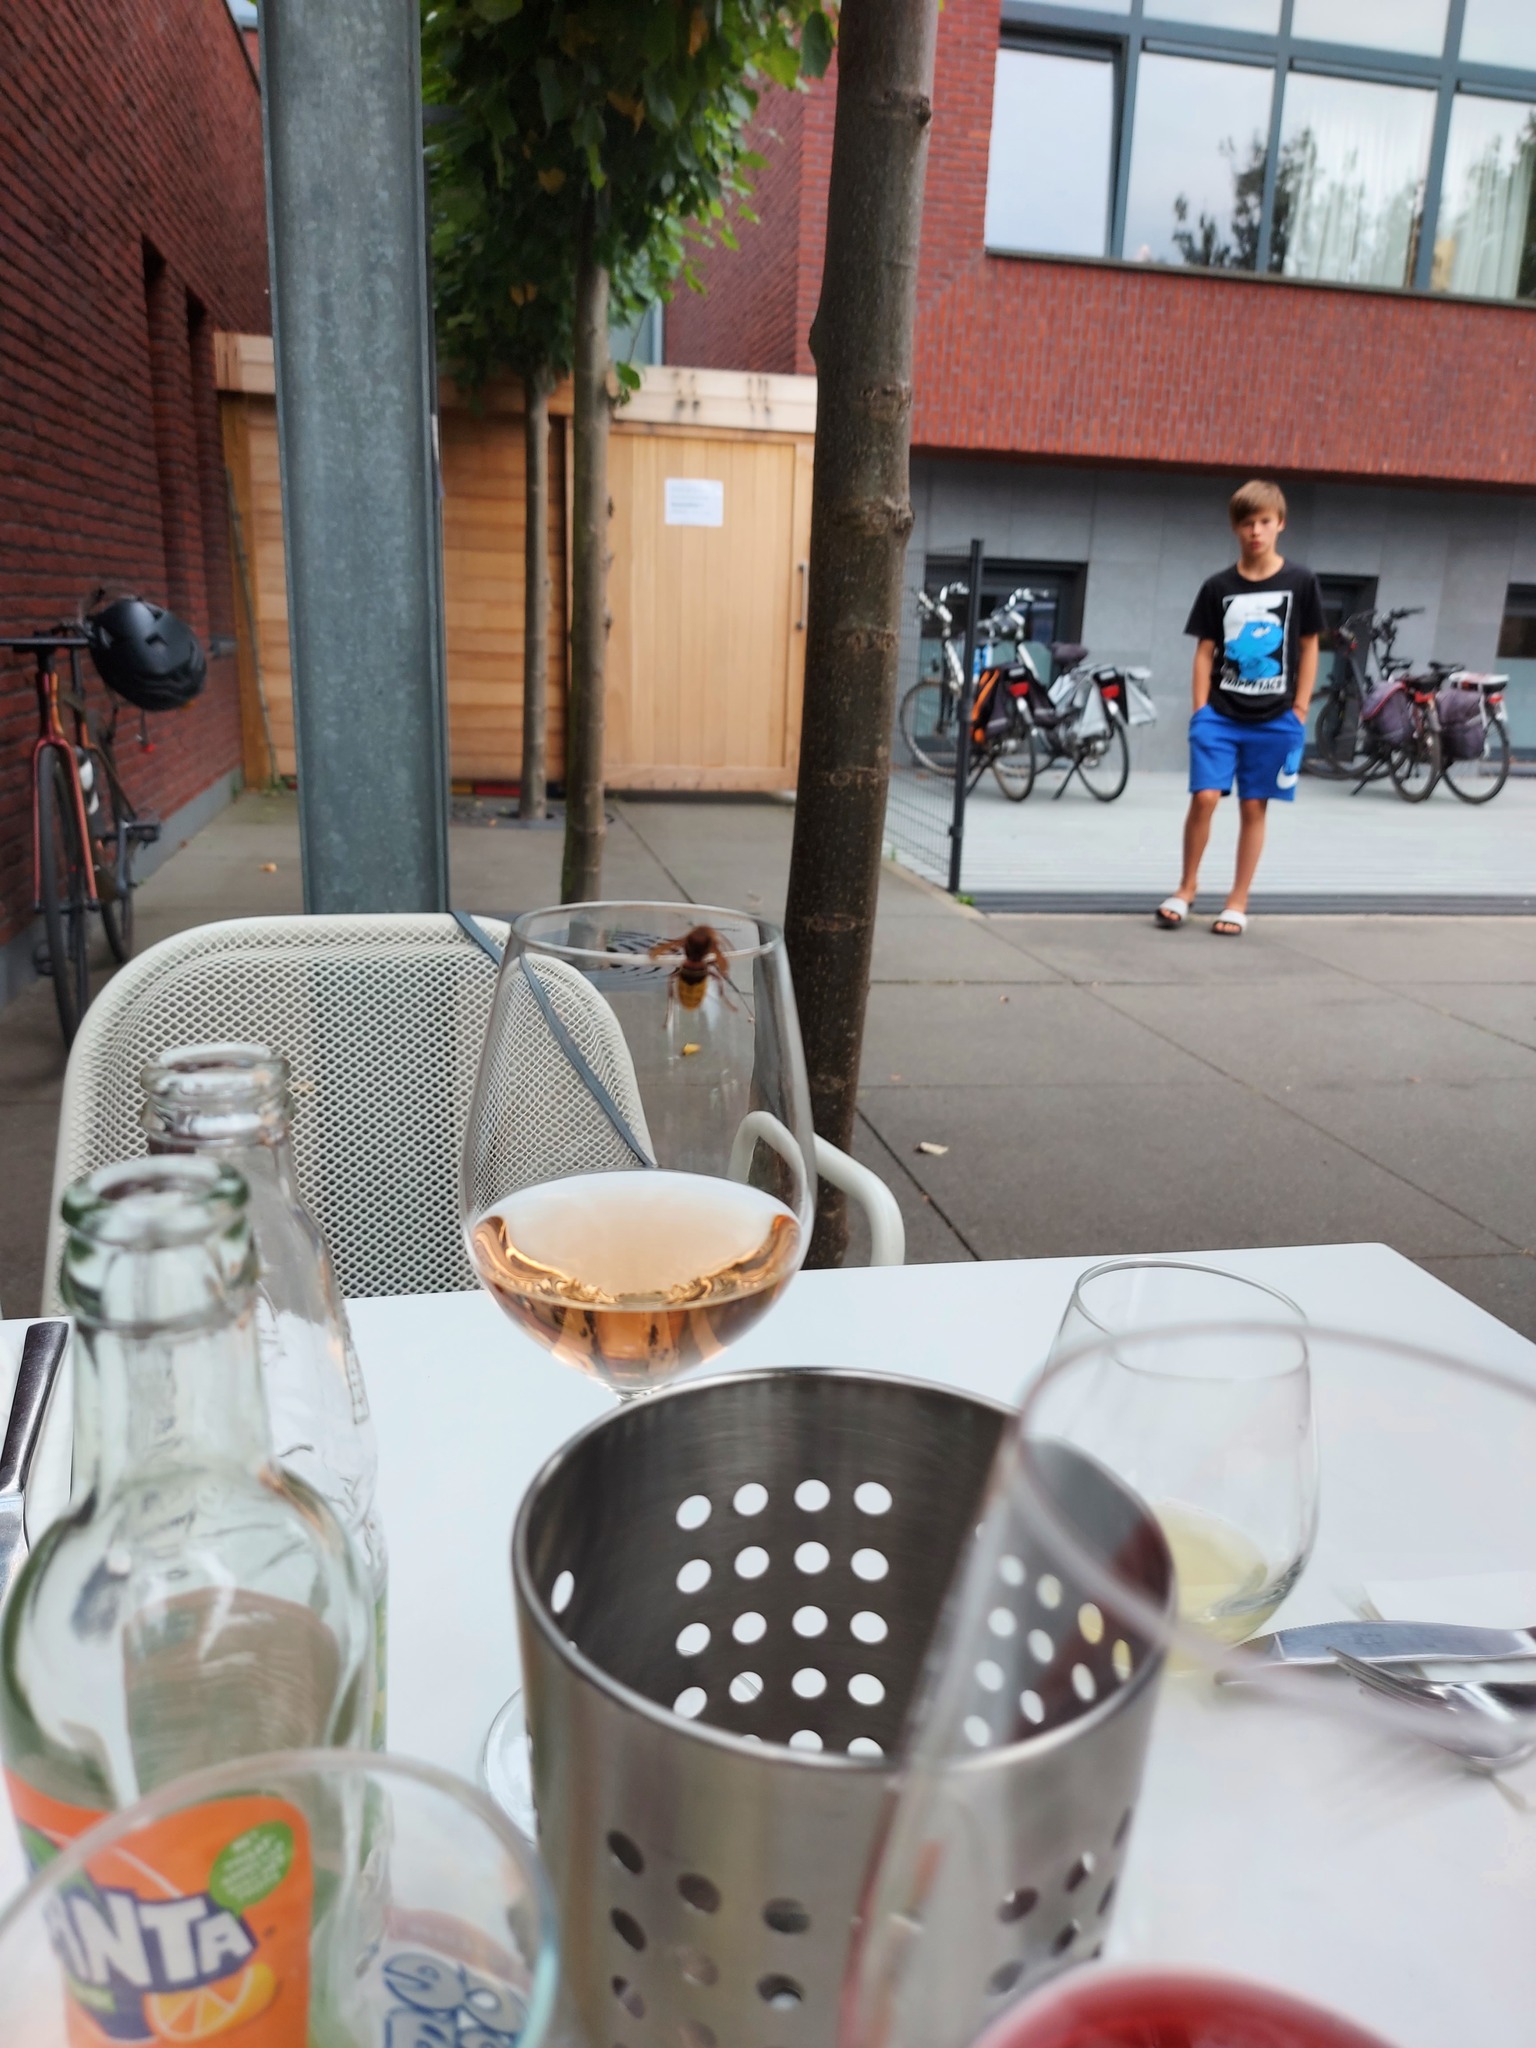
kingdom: Animalia
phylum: Arthropoda
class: Insecta
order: Hymenoptera
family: Vespidae
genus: Vespa
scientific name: Vespa crabro
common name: Hornet
